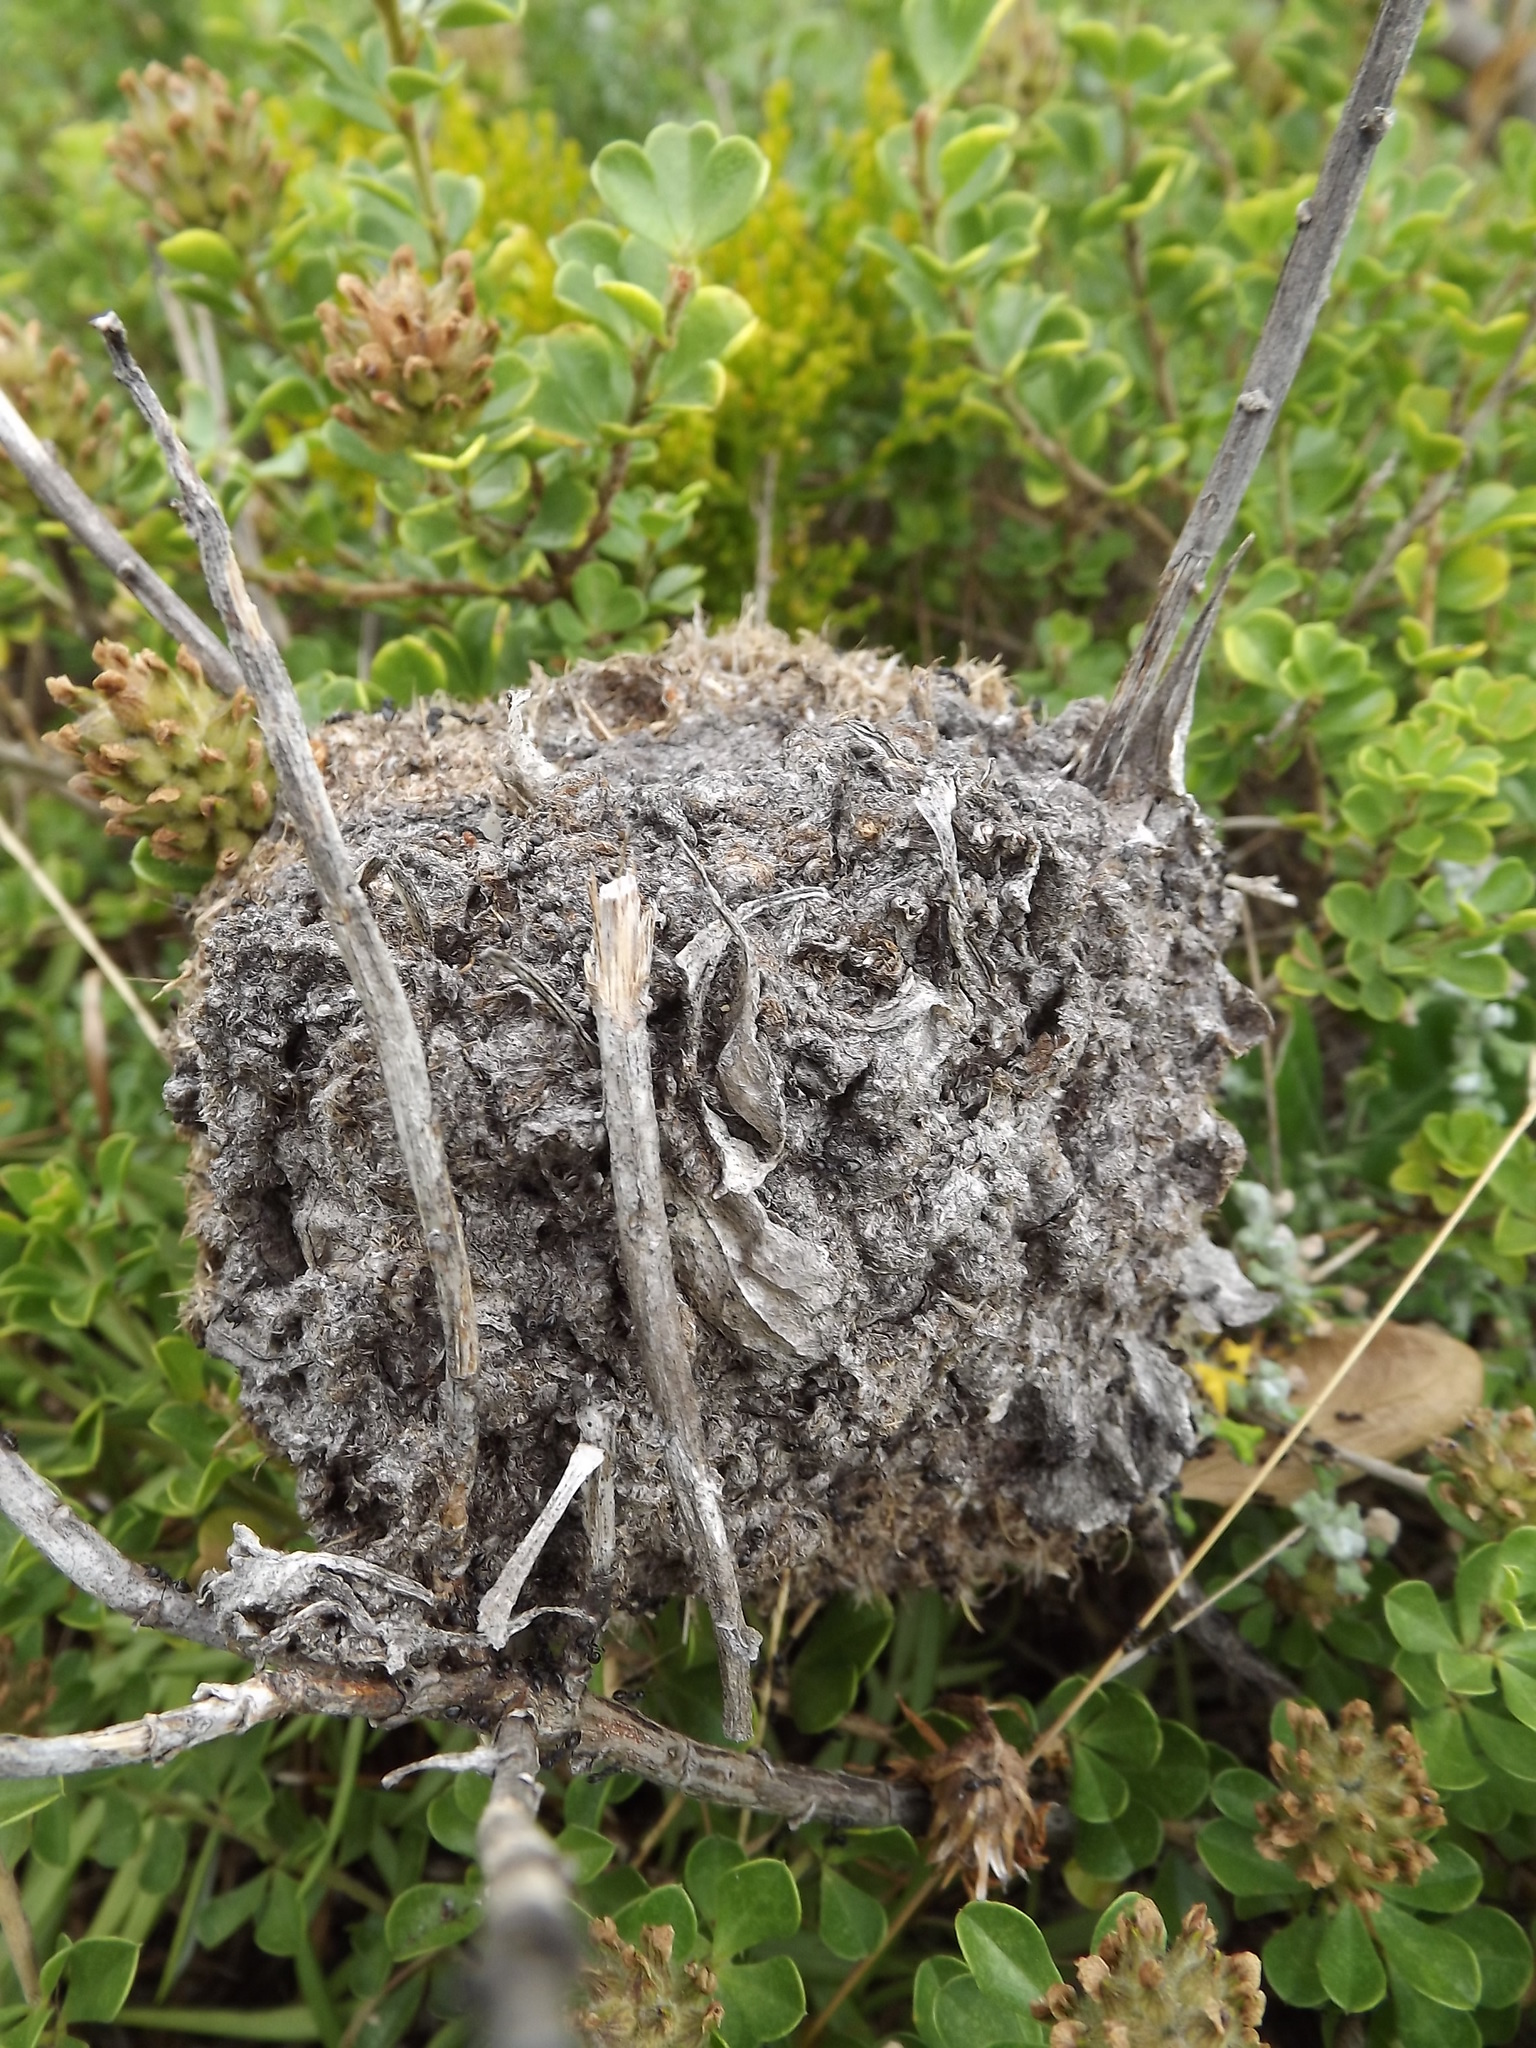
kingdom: Animalia
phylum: Arthropoda
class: Insecta
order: Hymenoptera
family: Formicidae
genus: Crematogaster
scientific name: Crematogaster peringueyi
